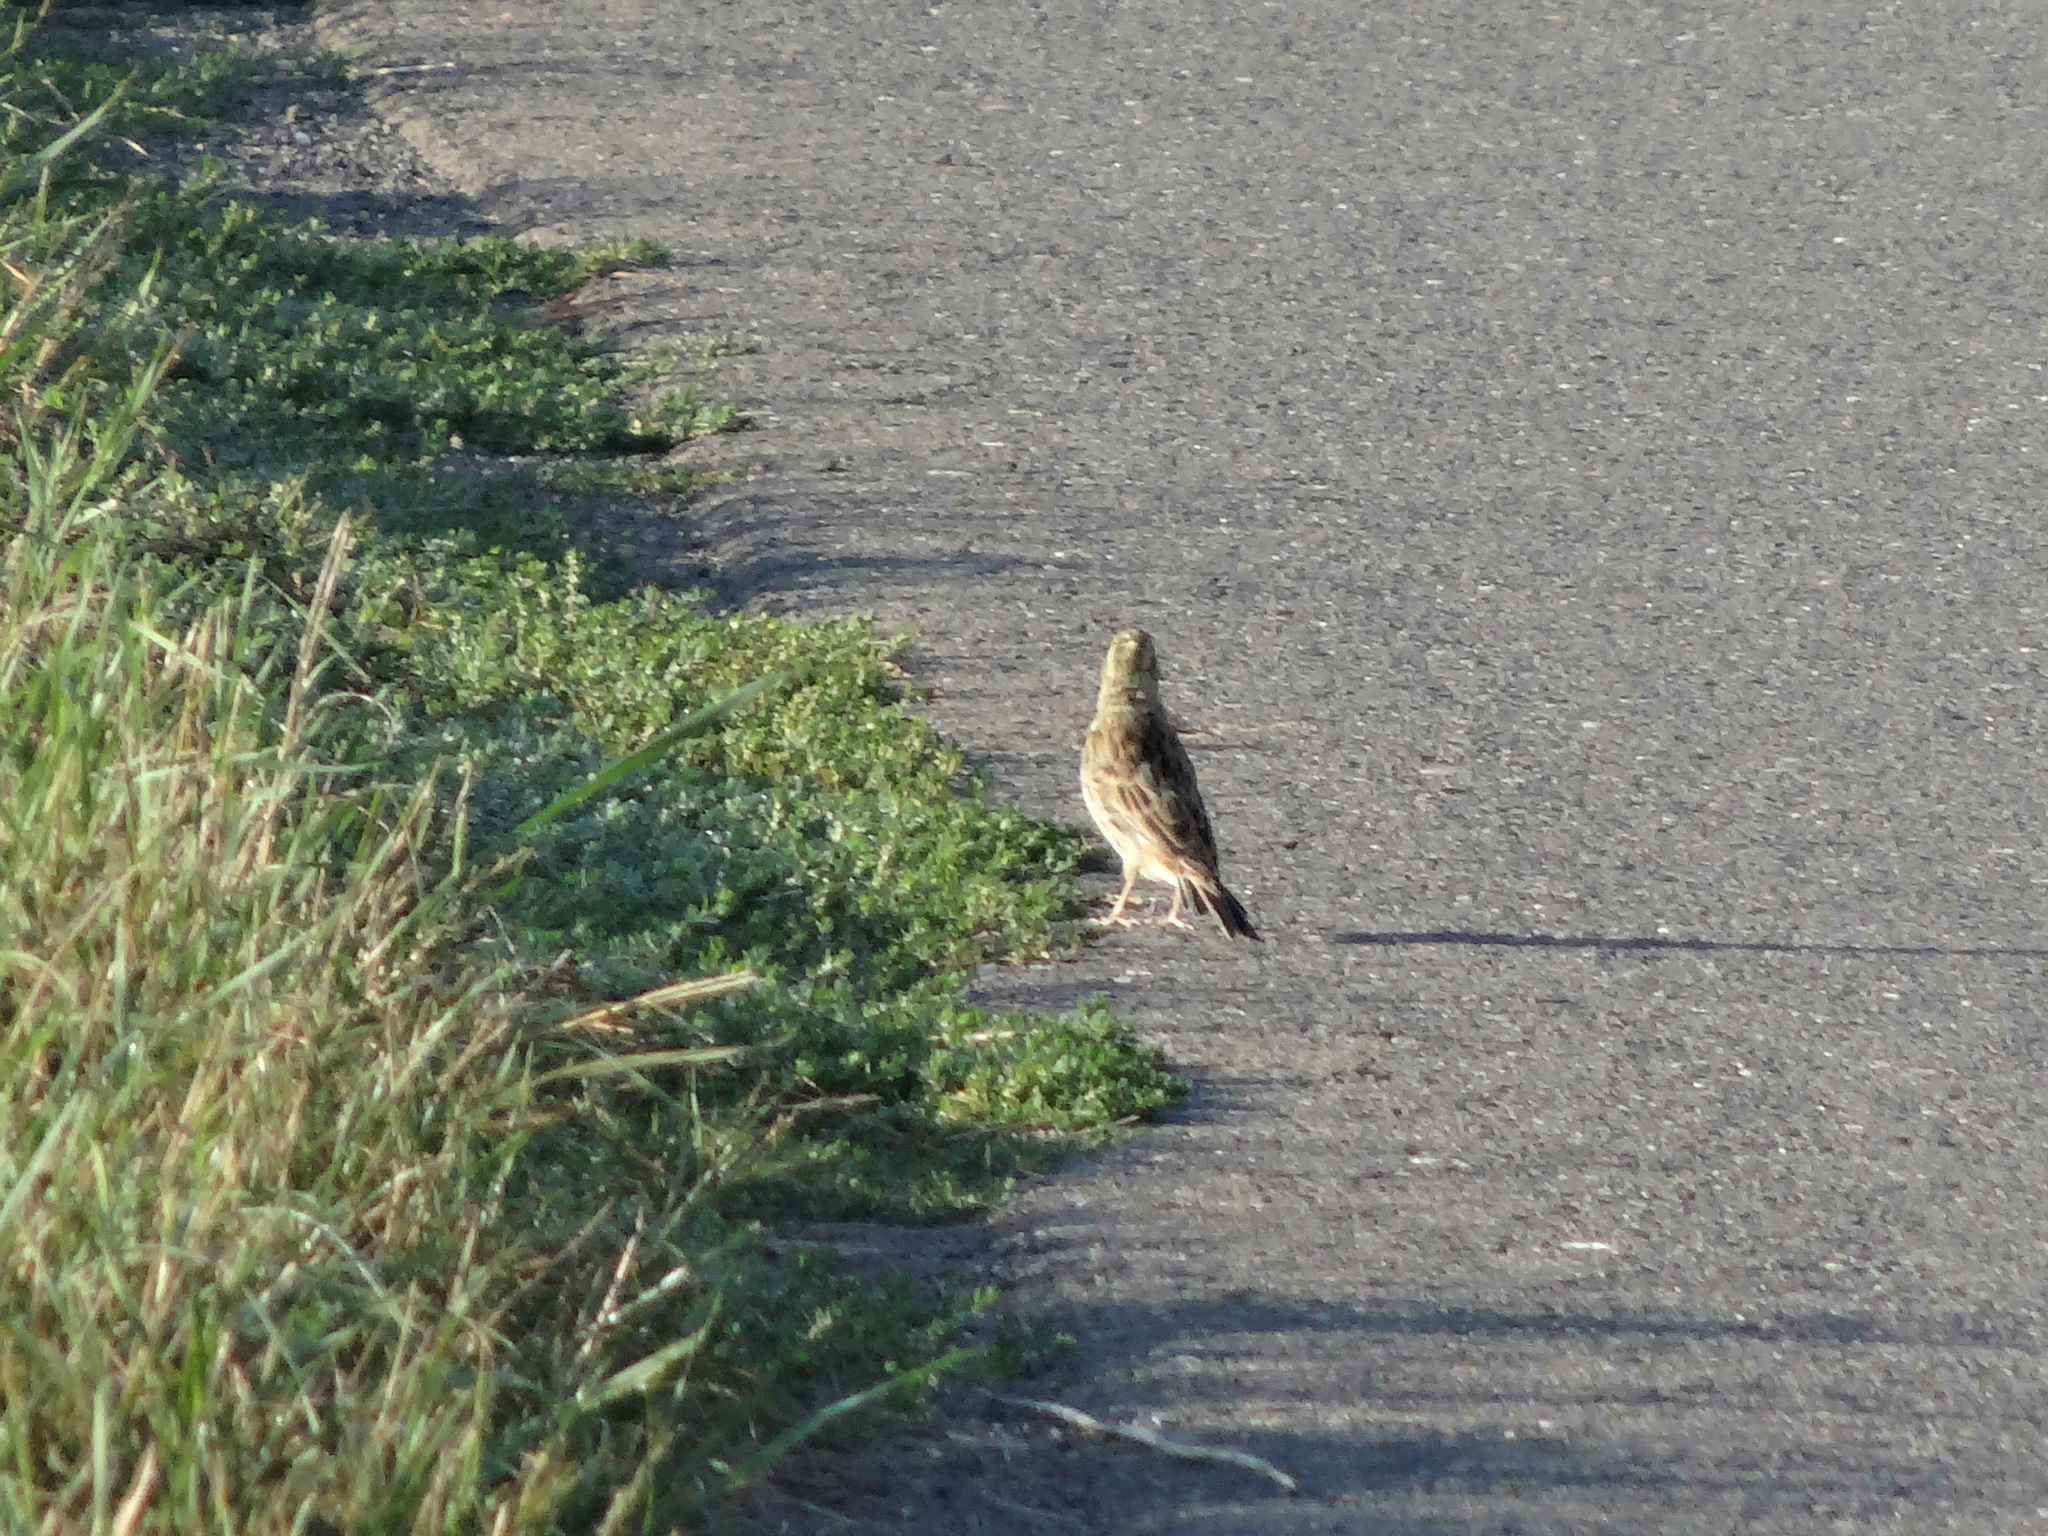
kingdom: Animalia
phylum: Chordata
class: Aves
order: Passeriformes
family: Emberizidae
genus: Emberiza
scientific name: Emberiza citrinella
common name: Yellowhammer
